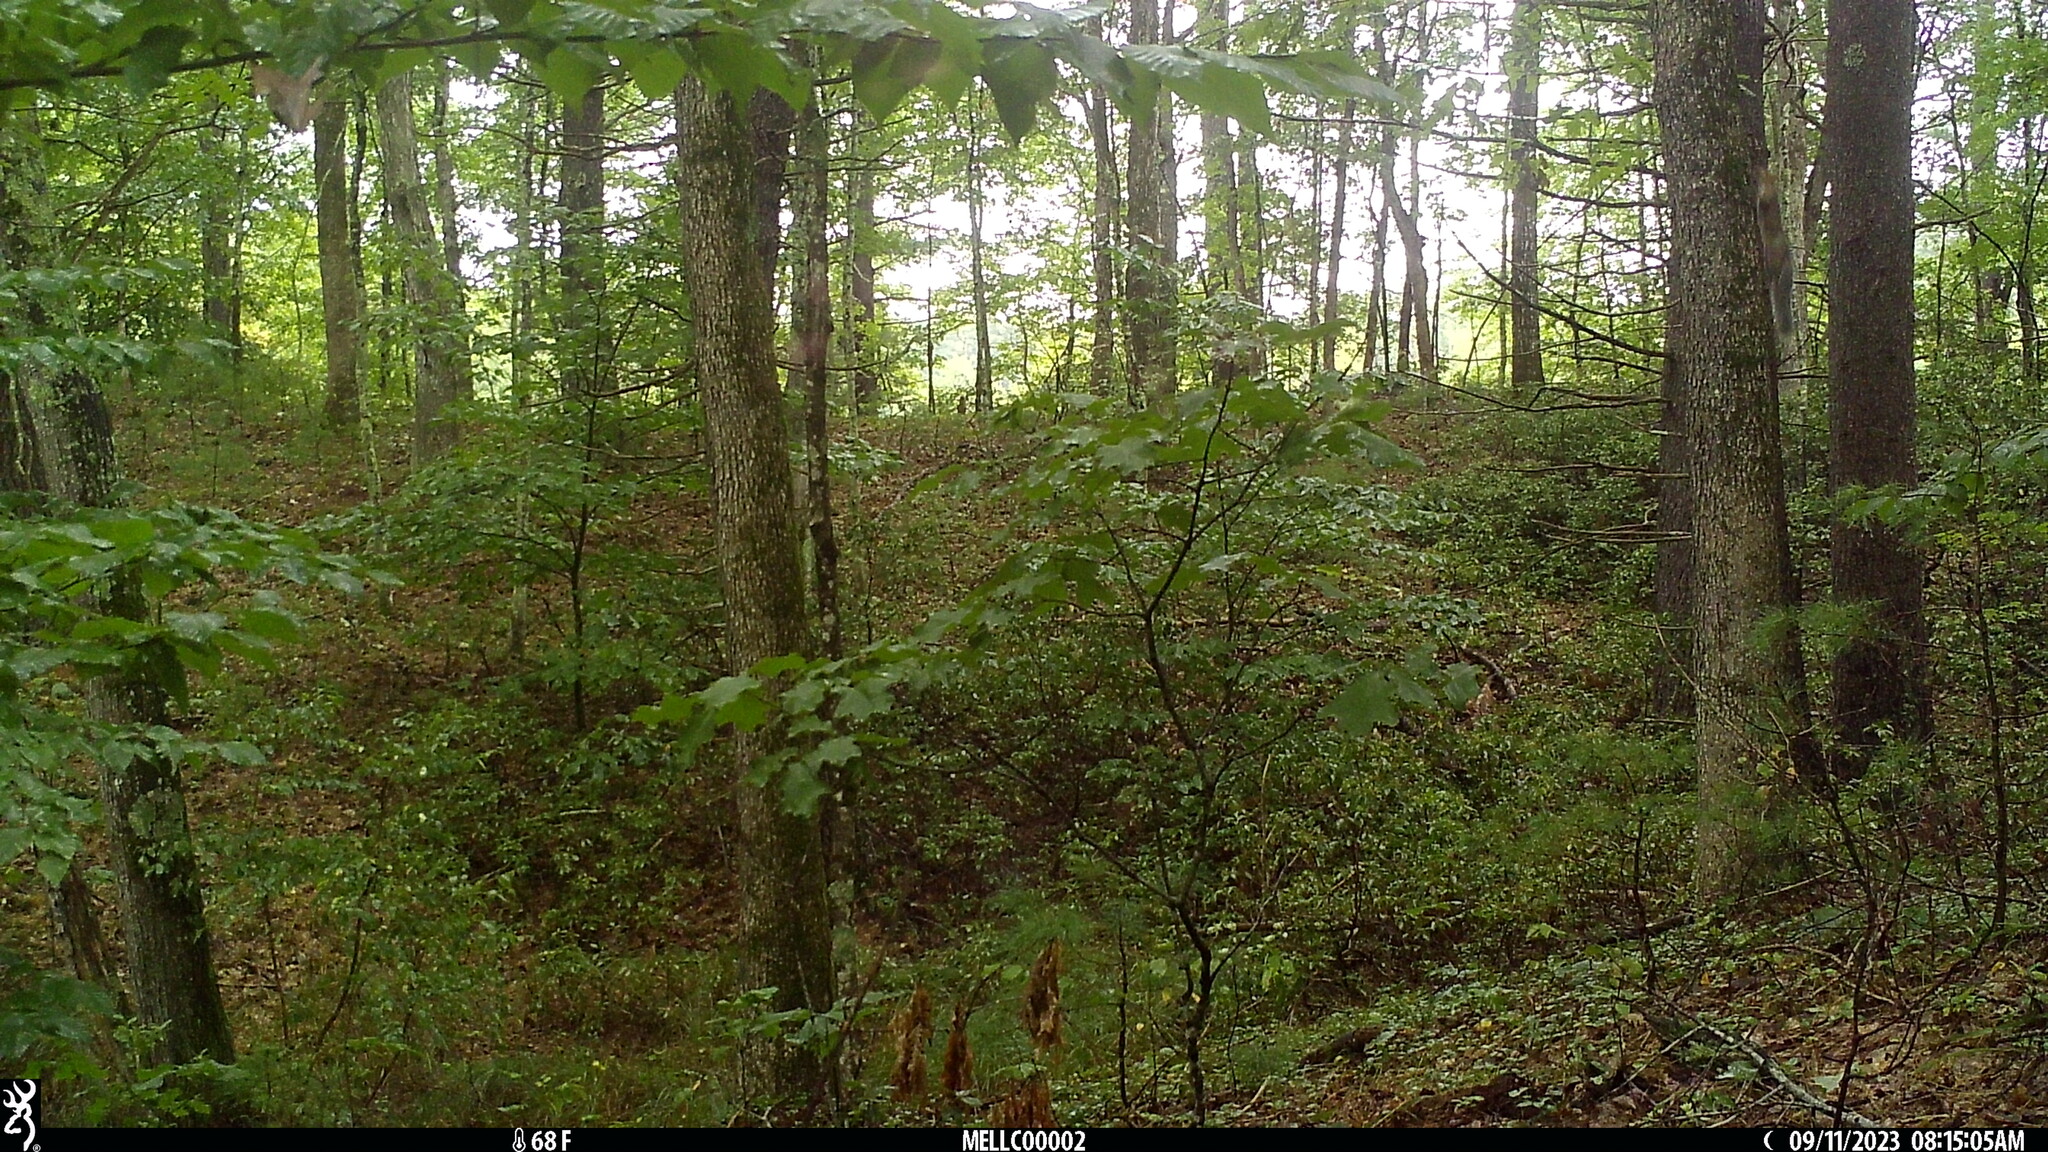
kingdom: Animalia
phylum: Chordata
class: Mammalia
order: Rodentia
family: Sciuridae
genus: Sciurus
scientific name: Sciurus carolinensis
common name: Eastern gray squirrel
